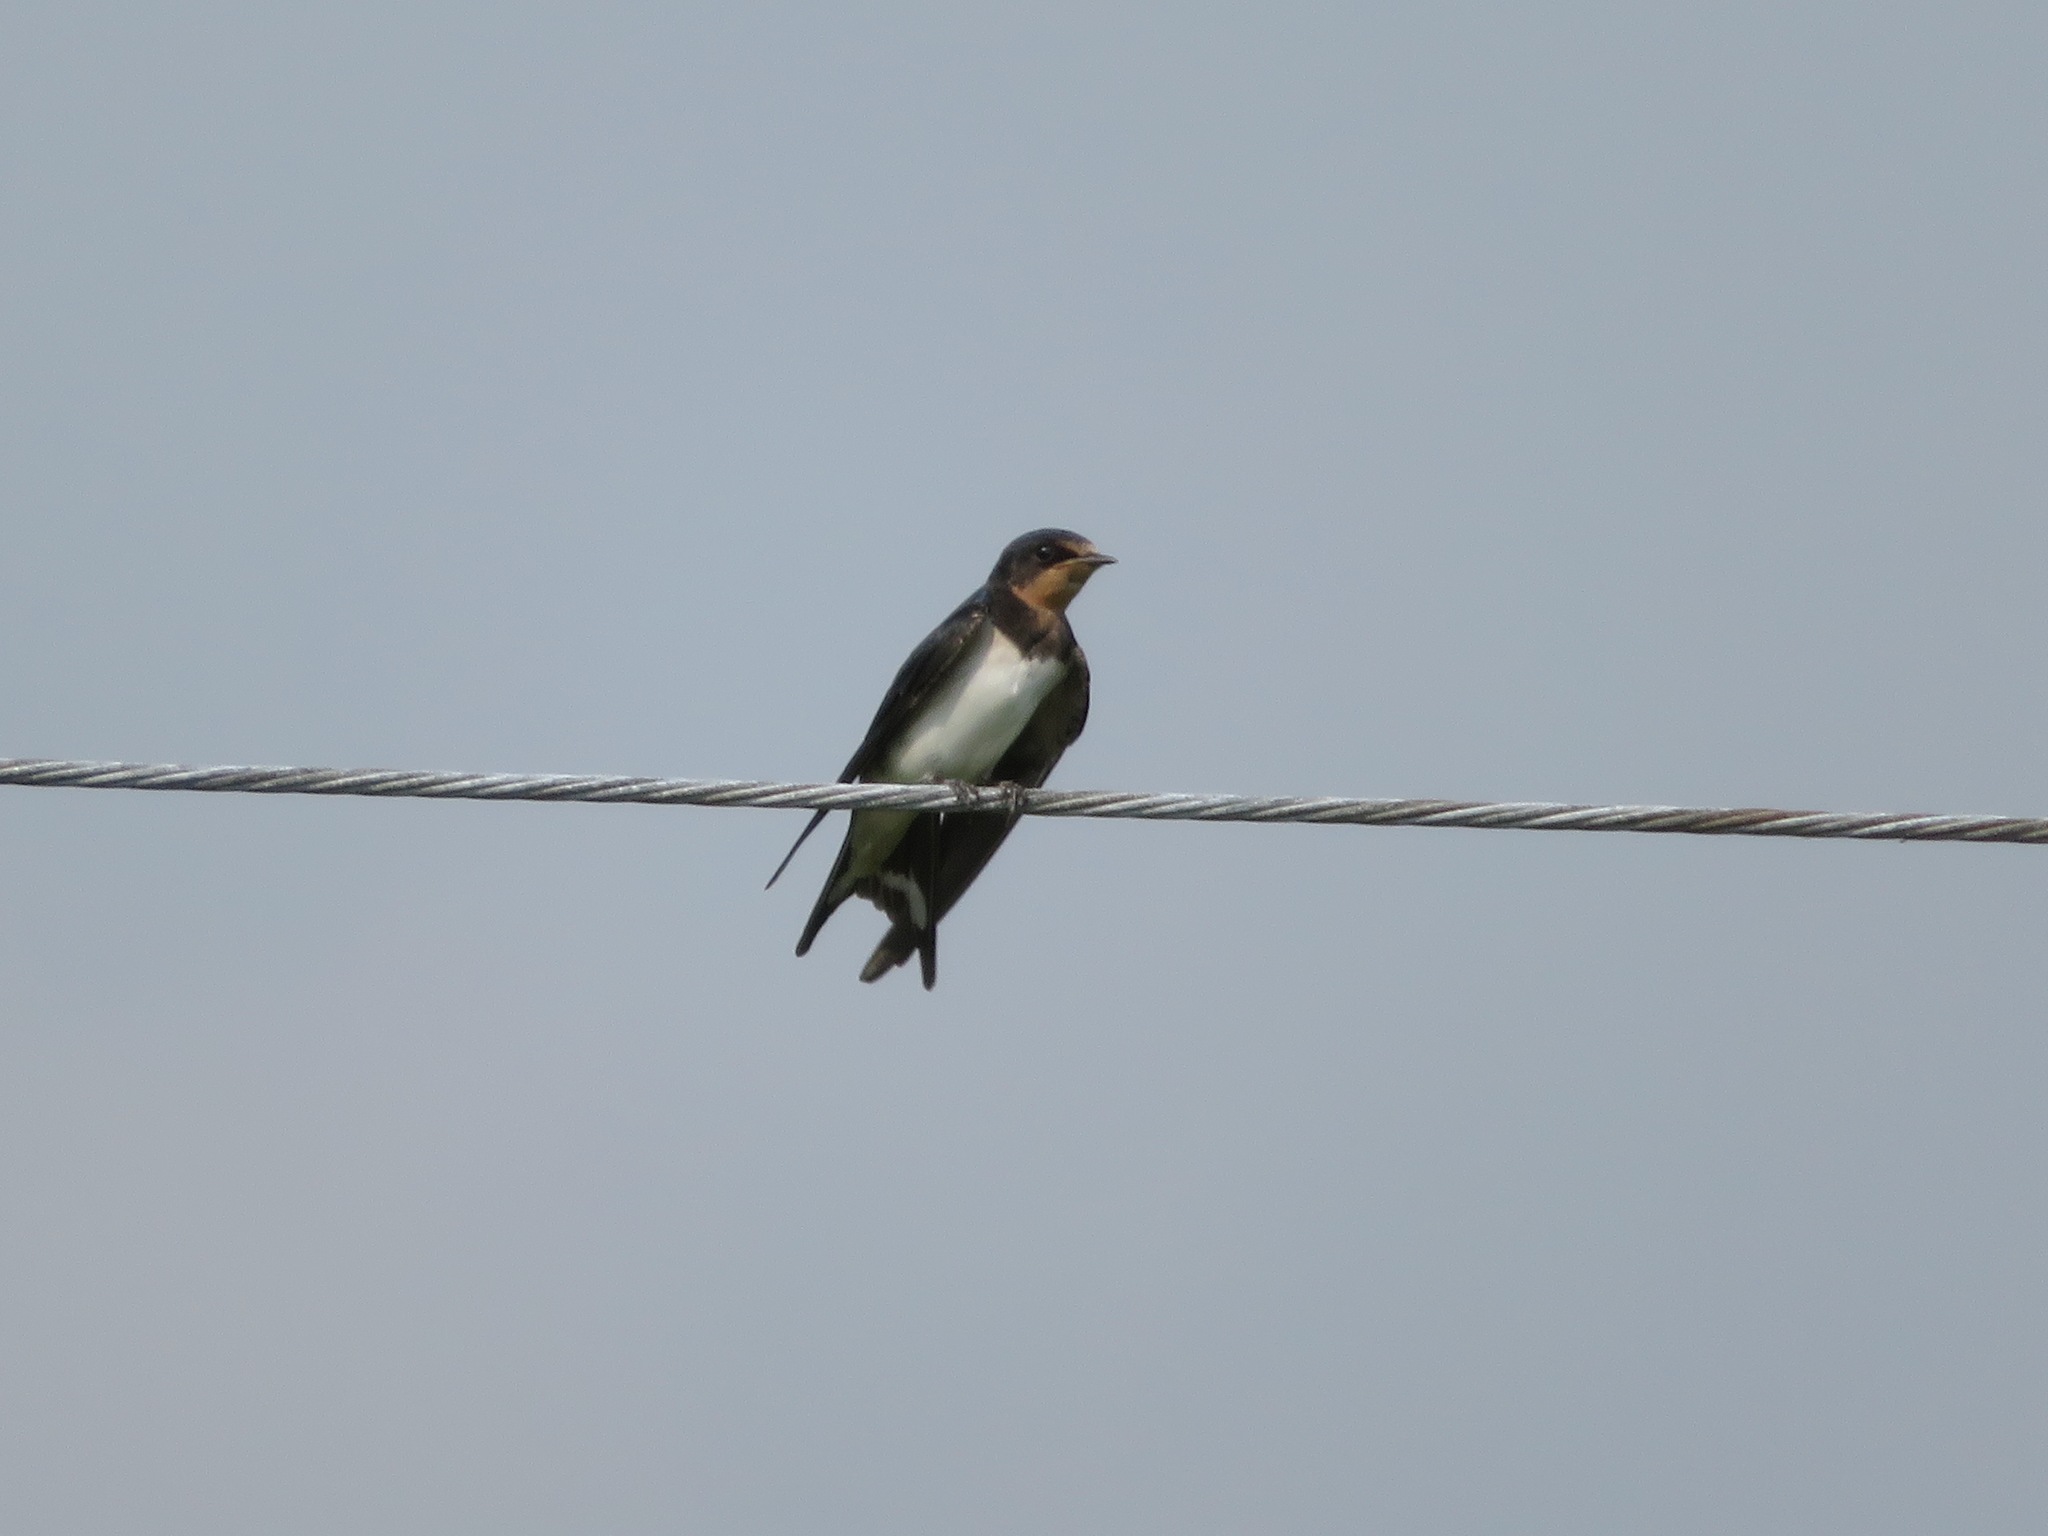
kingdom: Animalia
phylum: Chordata
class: Aves
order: Passeriformes
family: Hirundinidae
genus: Hirundo
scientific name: Hirundo rustica
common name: Barn swallow
